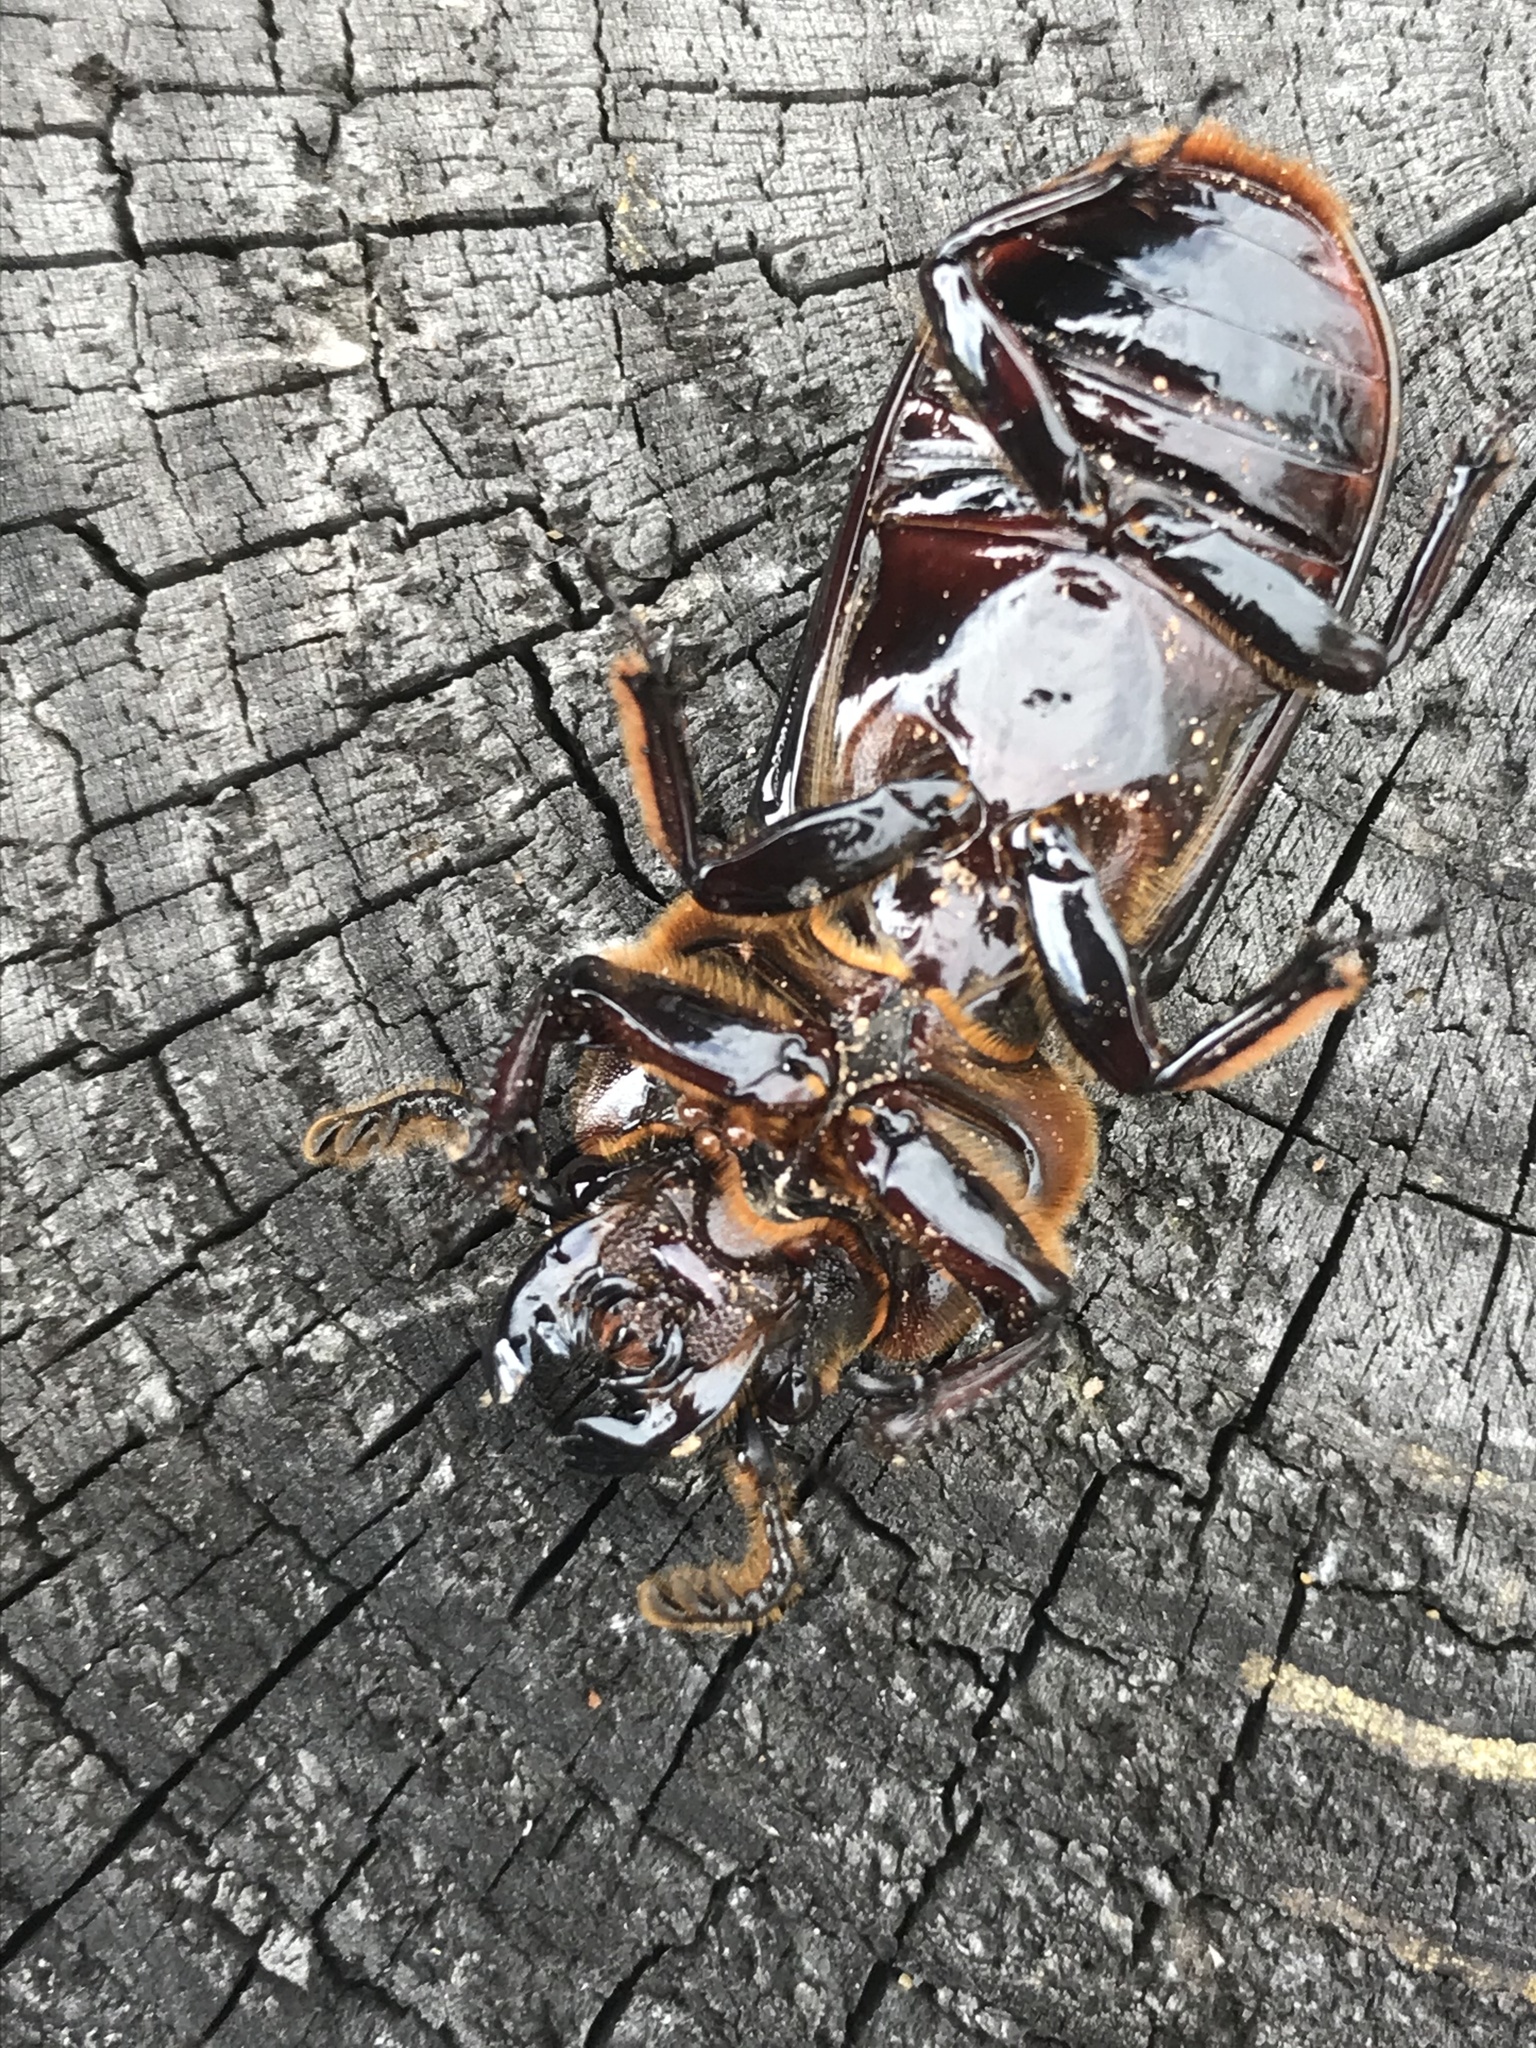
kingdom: Animalia
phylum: Arthropoda
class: Insecta
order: Coleoptera
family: Passalidae
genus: Odontotaenius
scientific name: Odontotaenius disjunctus
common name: Patent leather beetle
